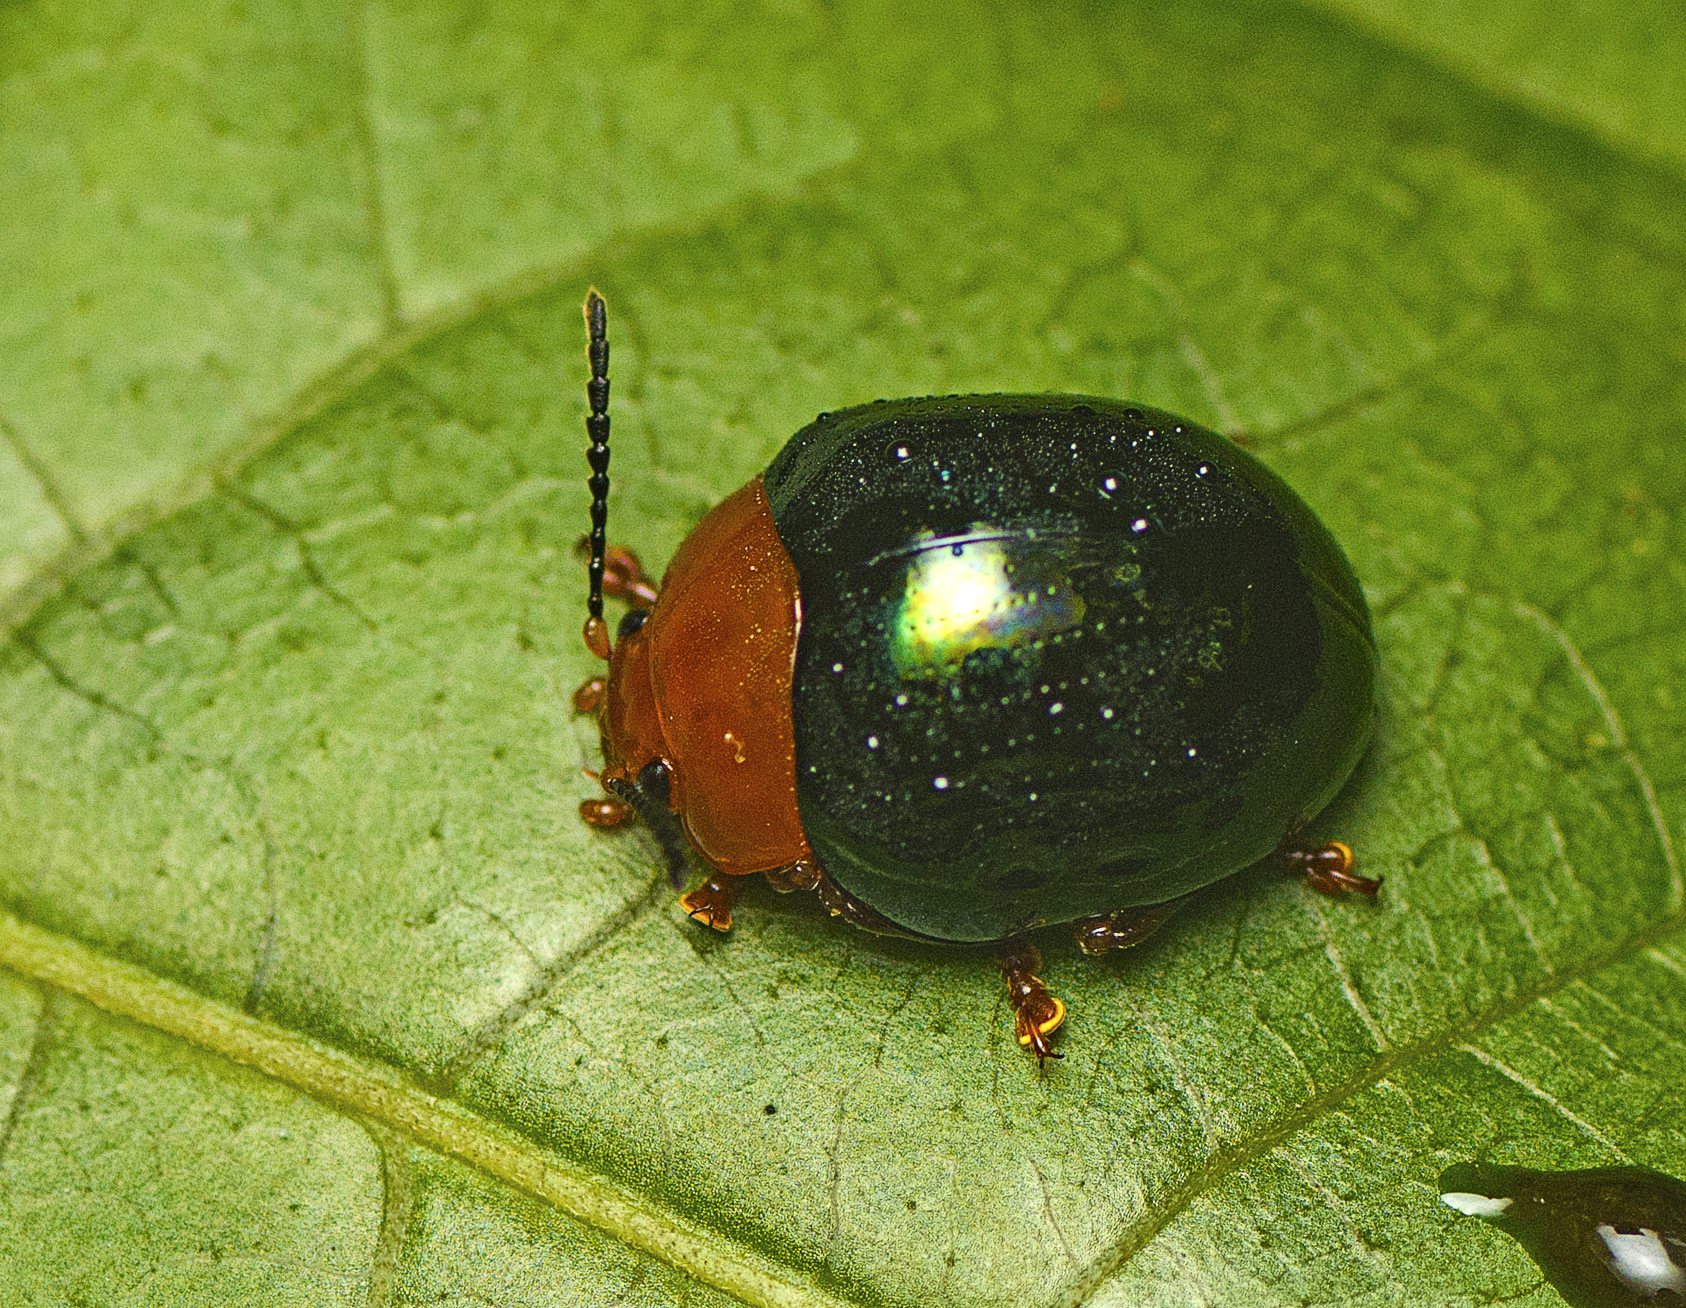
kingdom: Animalia
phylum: Arthropoda
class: Insecta
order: Coleoptera
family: Chrysomelidae
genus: Chalcomela
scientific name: Chalcomela
